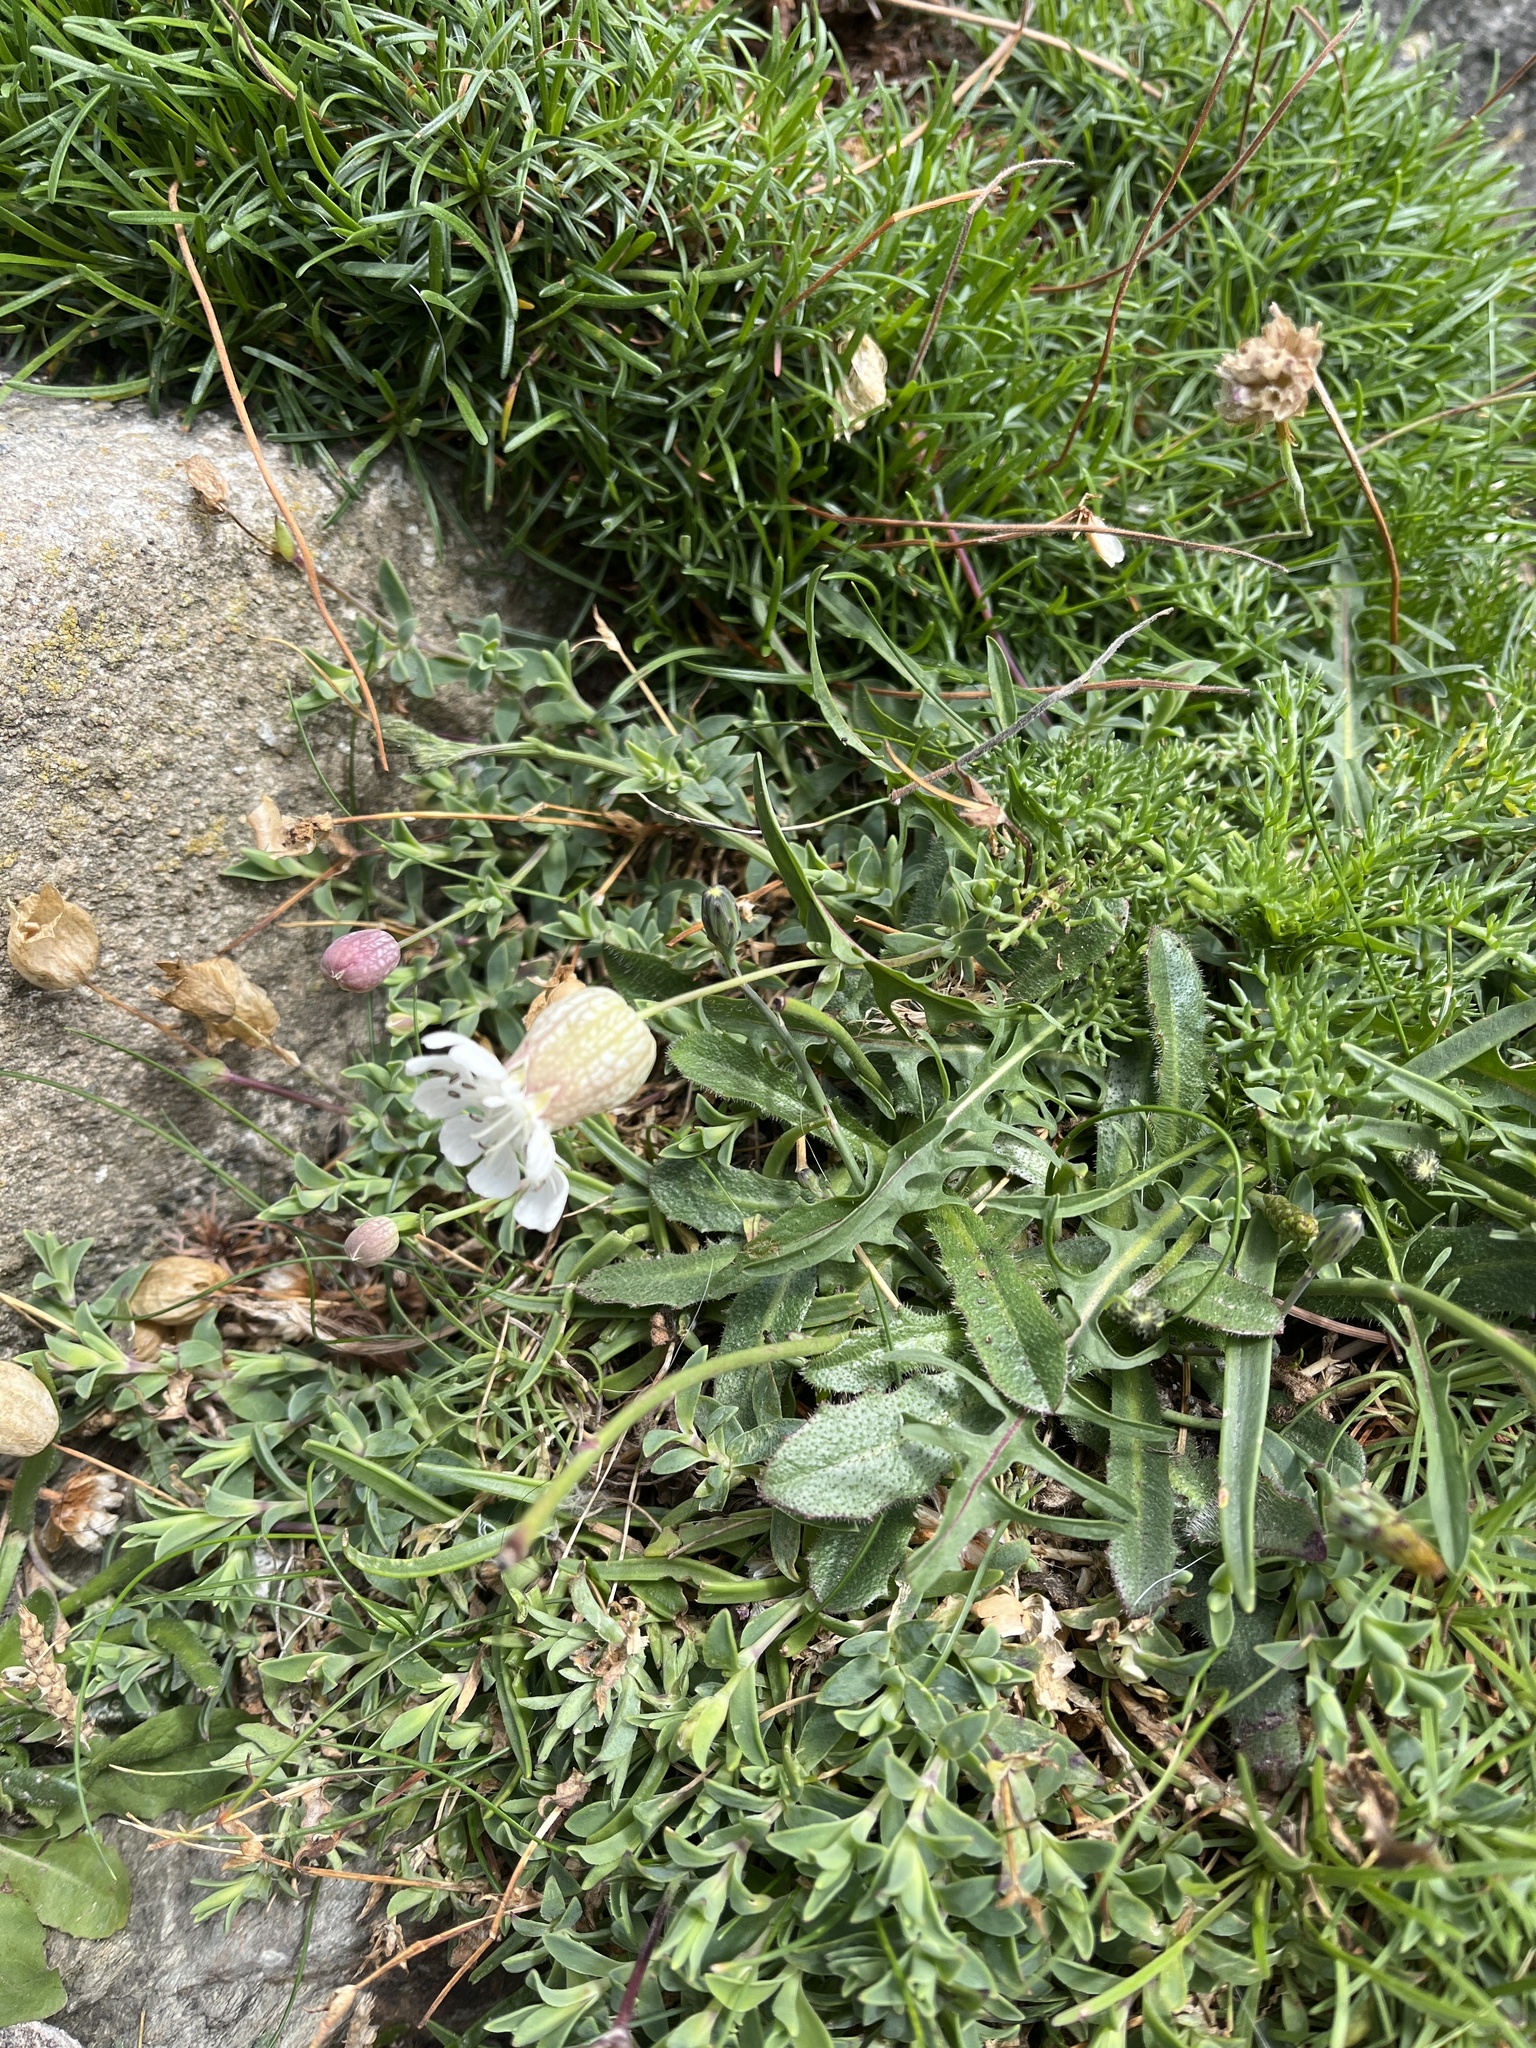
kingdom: Plantae
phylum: Tracheophyta
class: Magnoliopsida
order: Caryophyllales
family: Caryophyllaceae
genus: Silene
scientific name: Silene uniflora
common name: Sea campion
